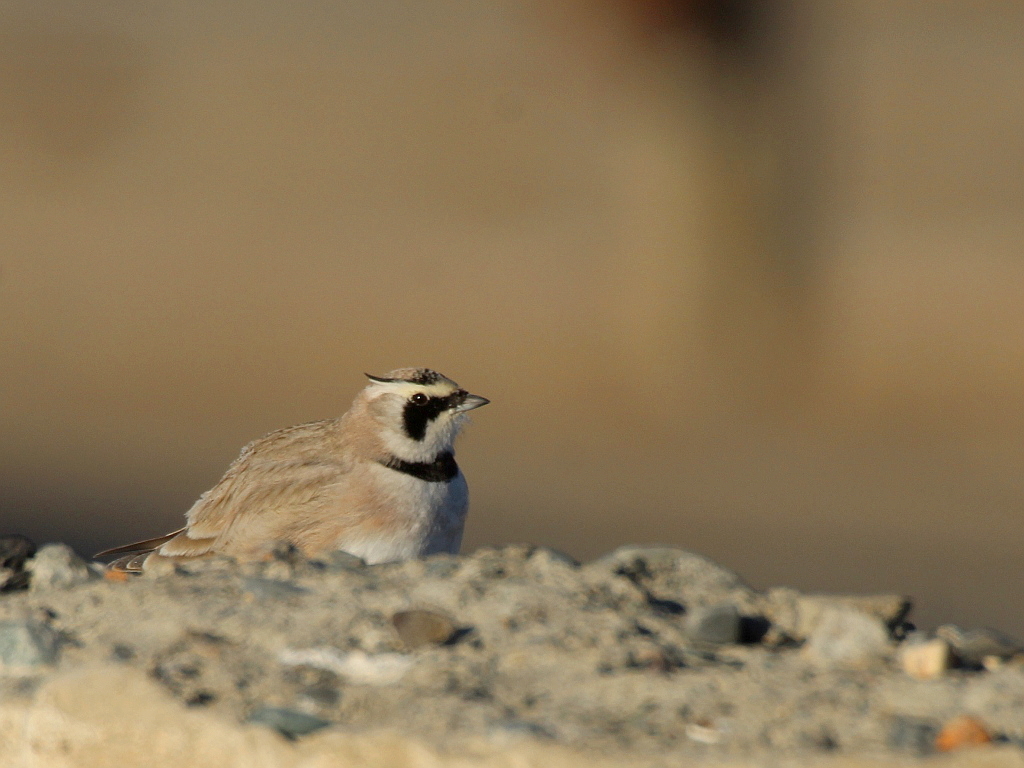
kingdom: Animalia
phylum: Chordata
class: Aves
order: Passeriformes
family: Alaudidae
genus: Eremophila
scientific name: Eremophila alpestris
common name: Horned lark
